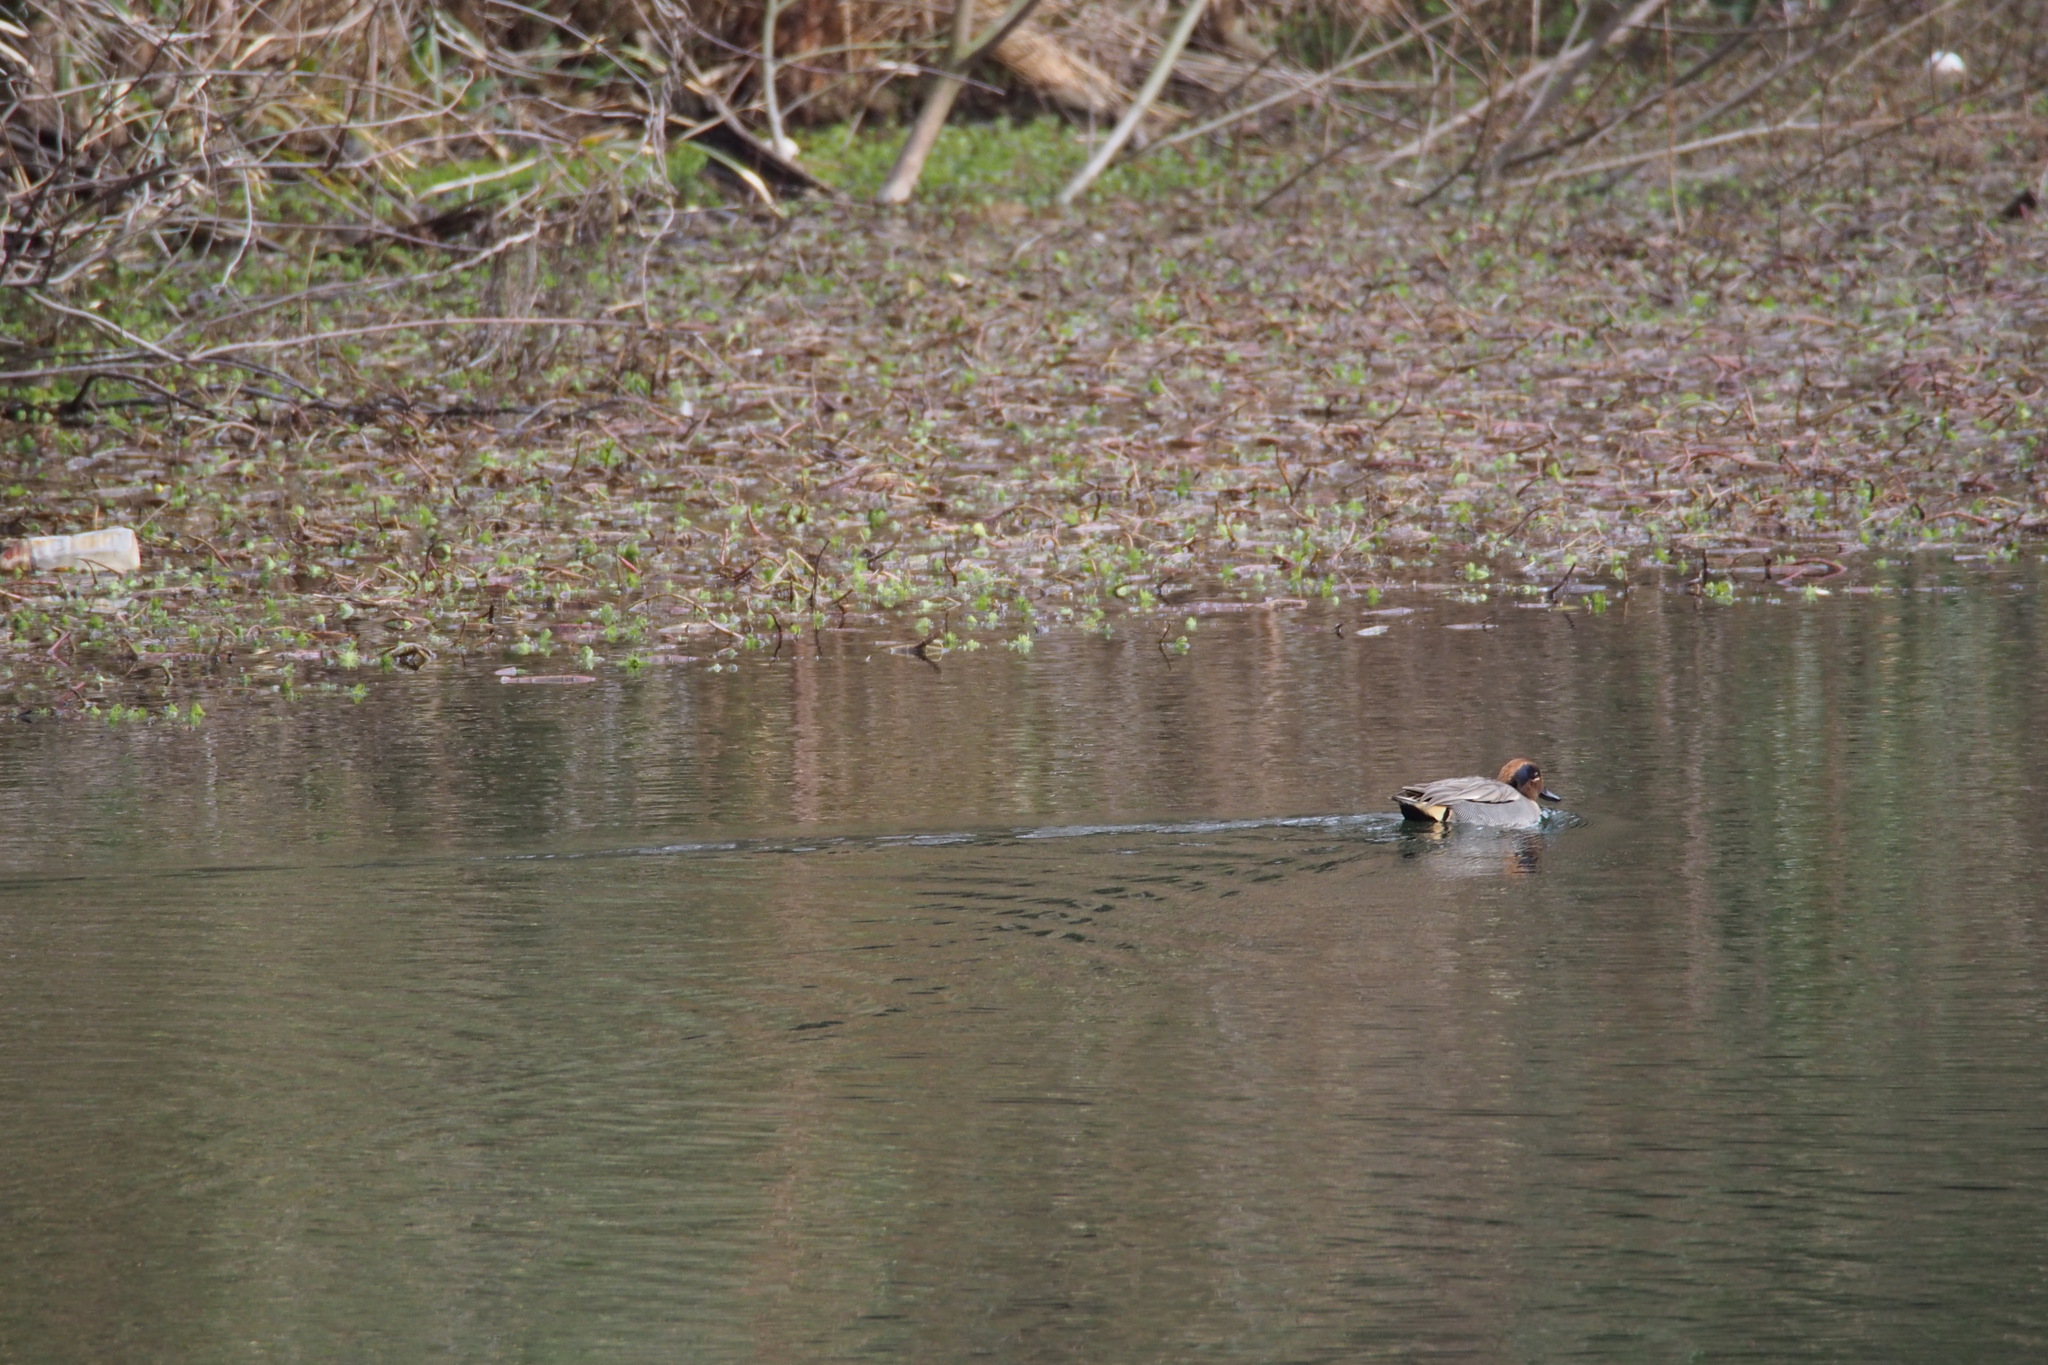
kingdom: Animalia
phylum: Chordata
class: Aves
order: Anseriformes
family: Anatidae
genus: Anas
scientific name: Anas crecca
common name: Eurasian teal
